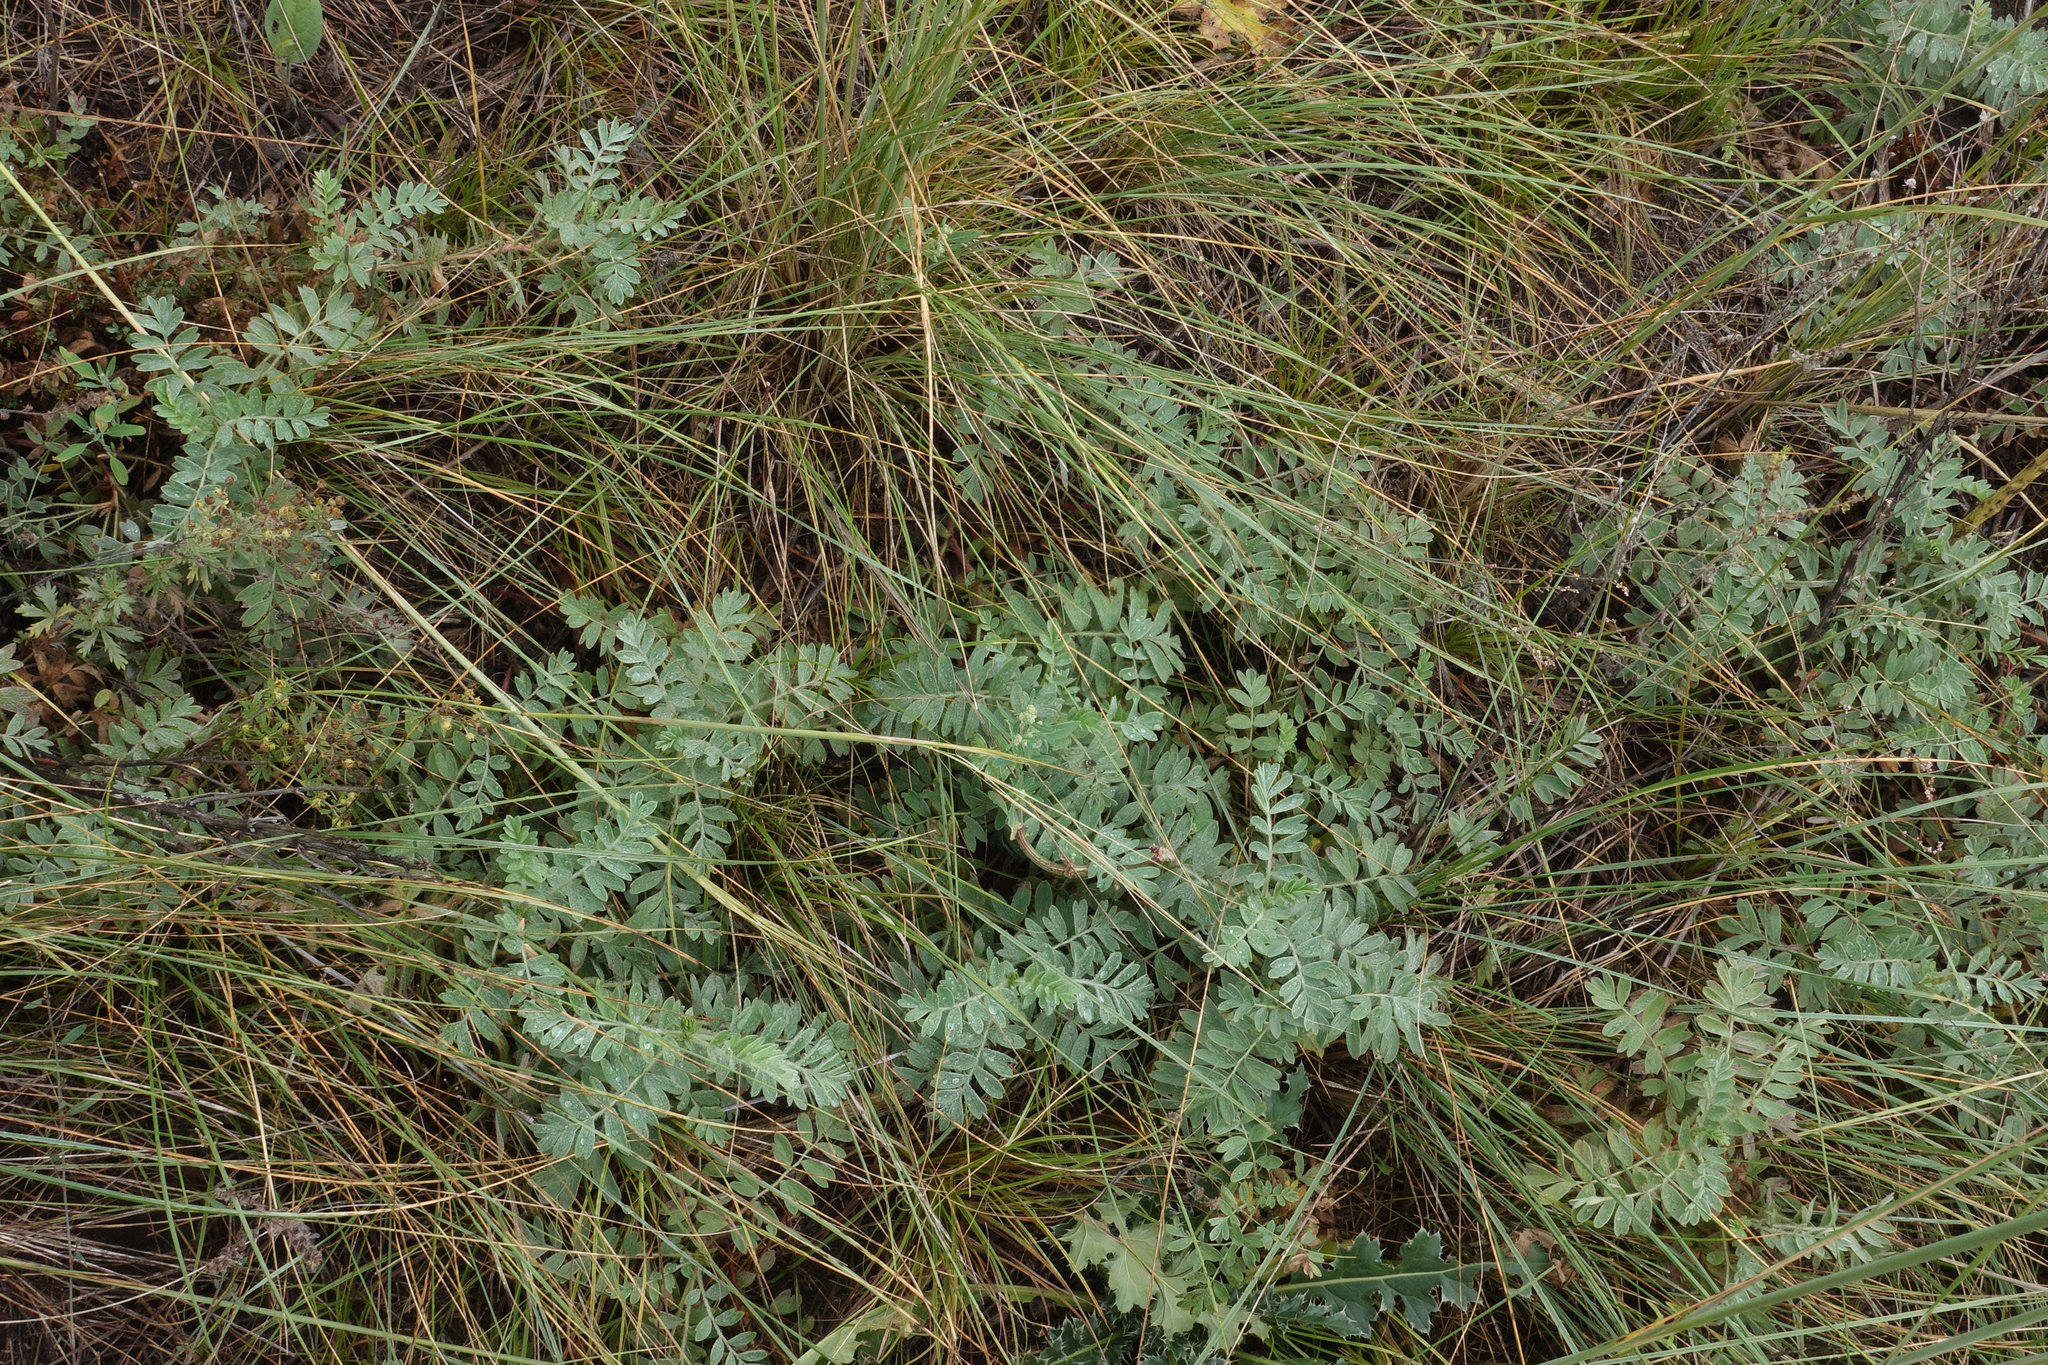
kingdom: Plantae
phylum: Tracheophyta
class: Magnoliopsida
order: Rosales
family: Rosaceae
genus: Sibbaldianthe
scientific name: Sibbaldianthe bifurca
